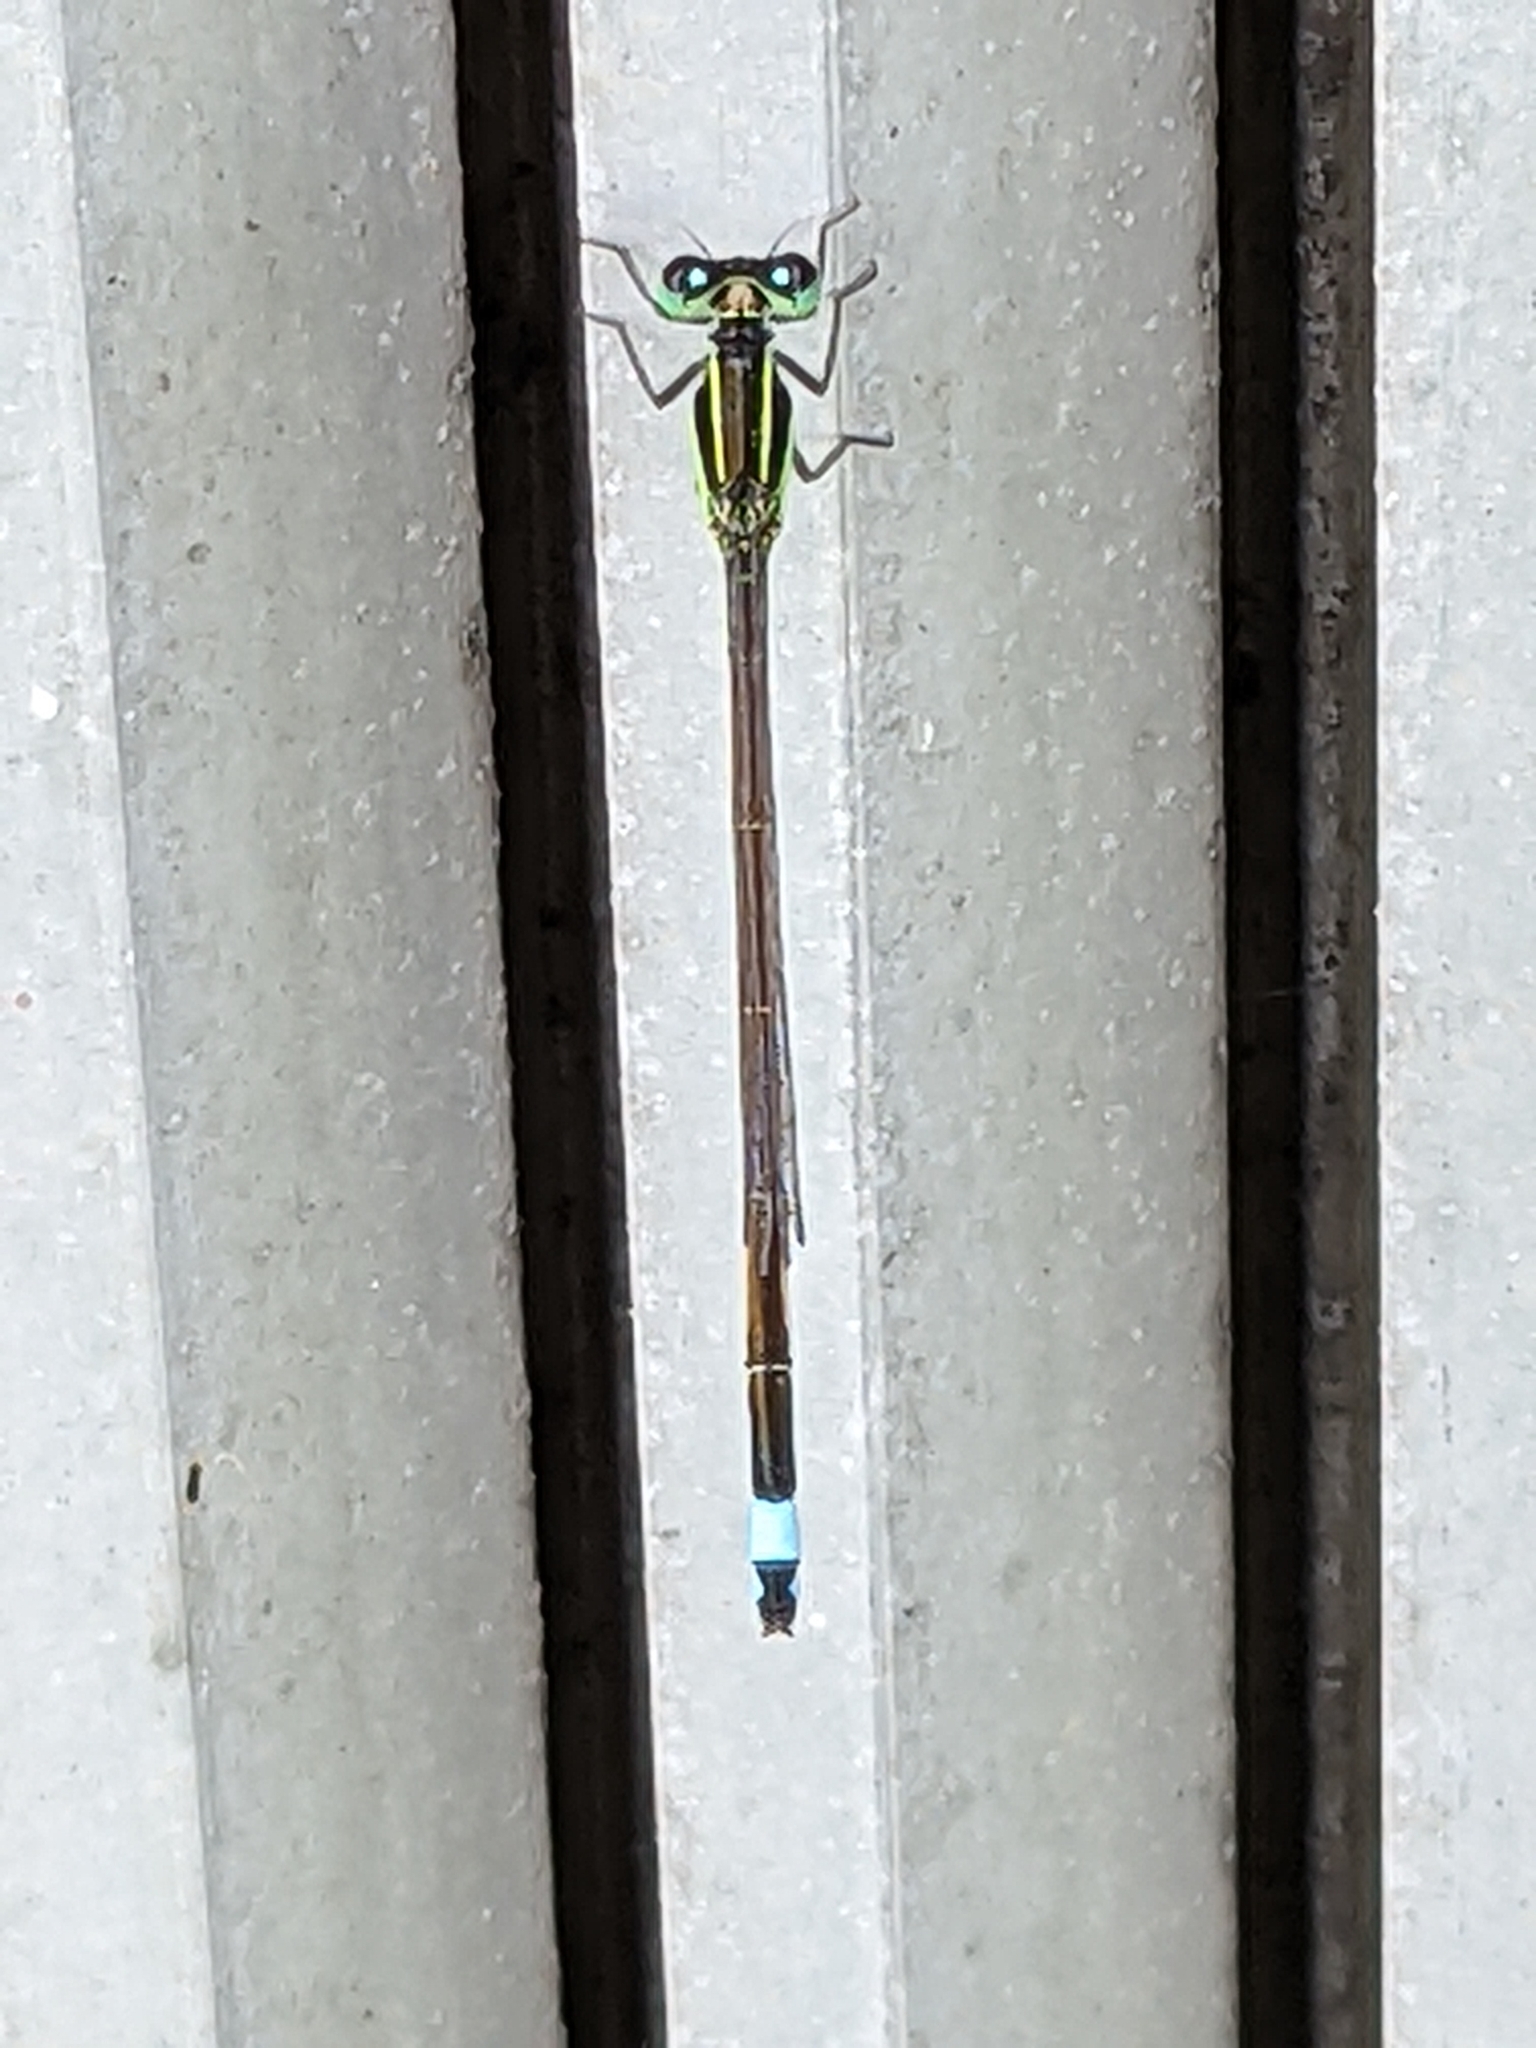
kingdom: Animalia
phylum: Arthropoda
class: Insecta
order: Odonata
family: Coenagrionidae
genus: Ischnura
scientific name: Ischnura ramburii
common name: Rambur's forktail
